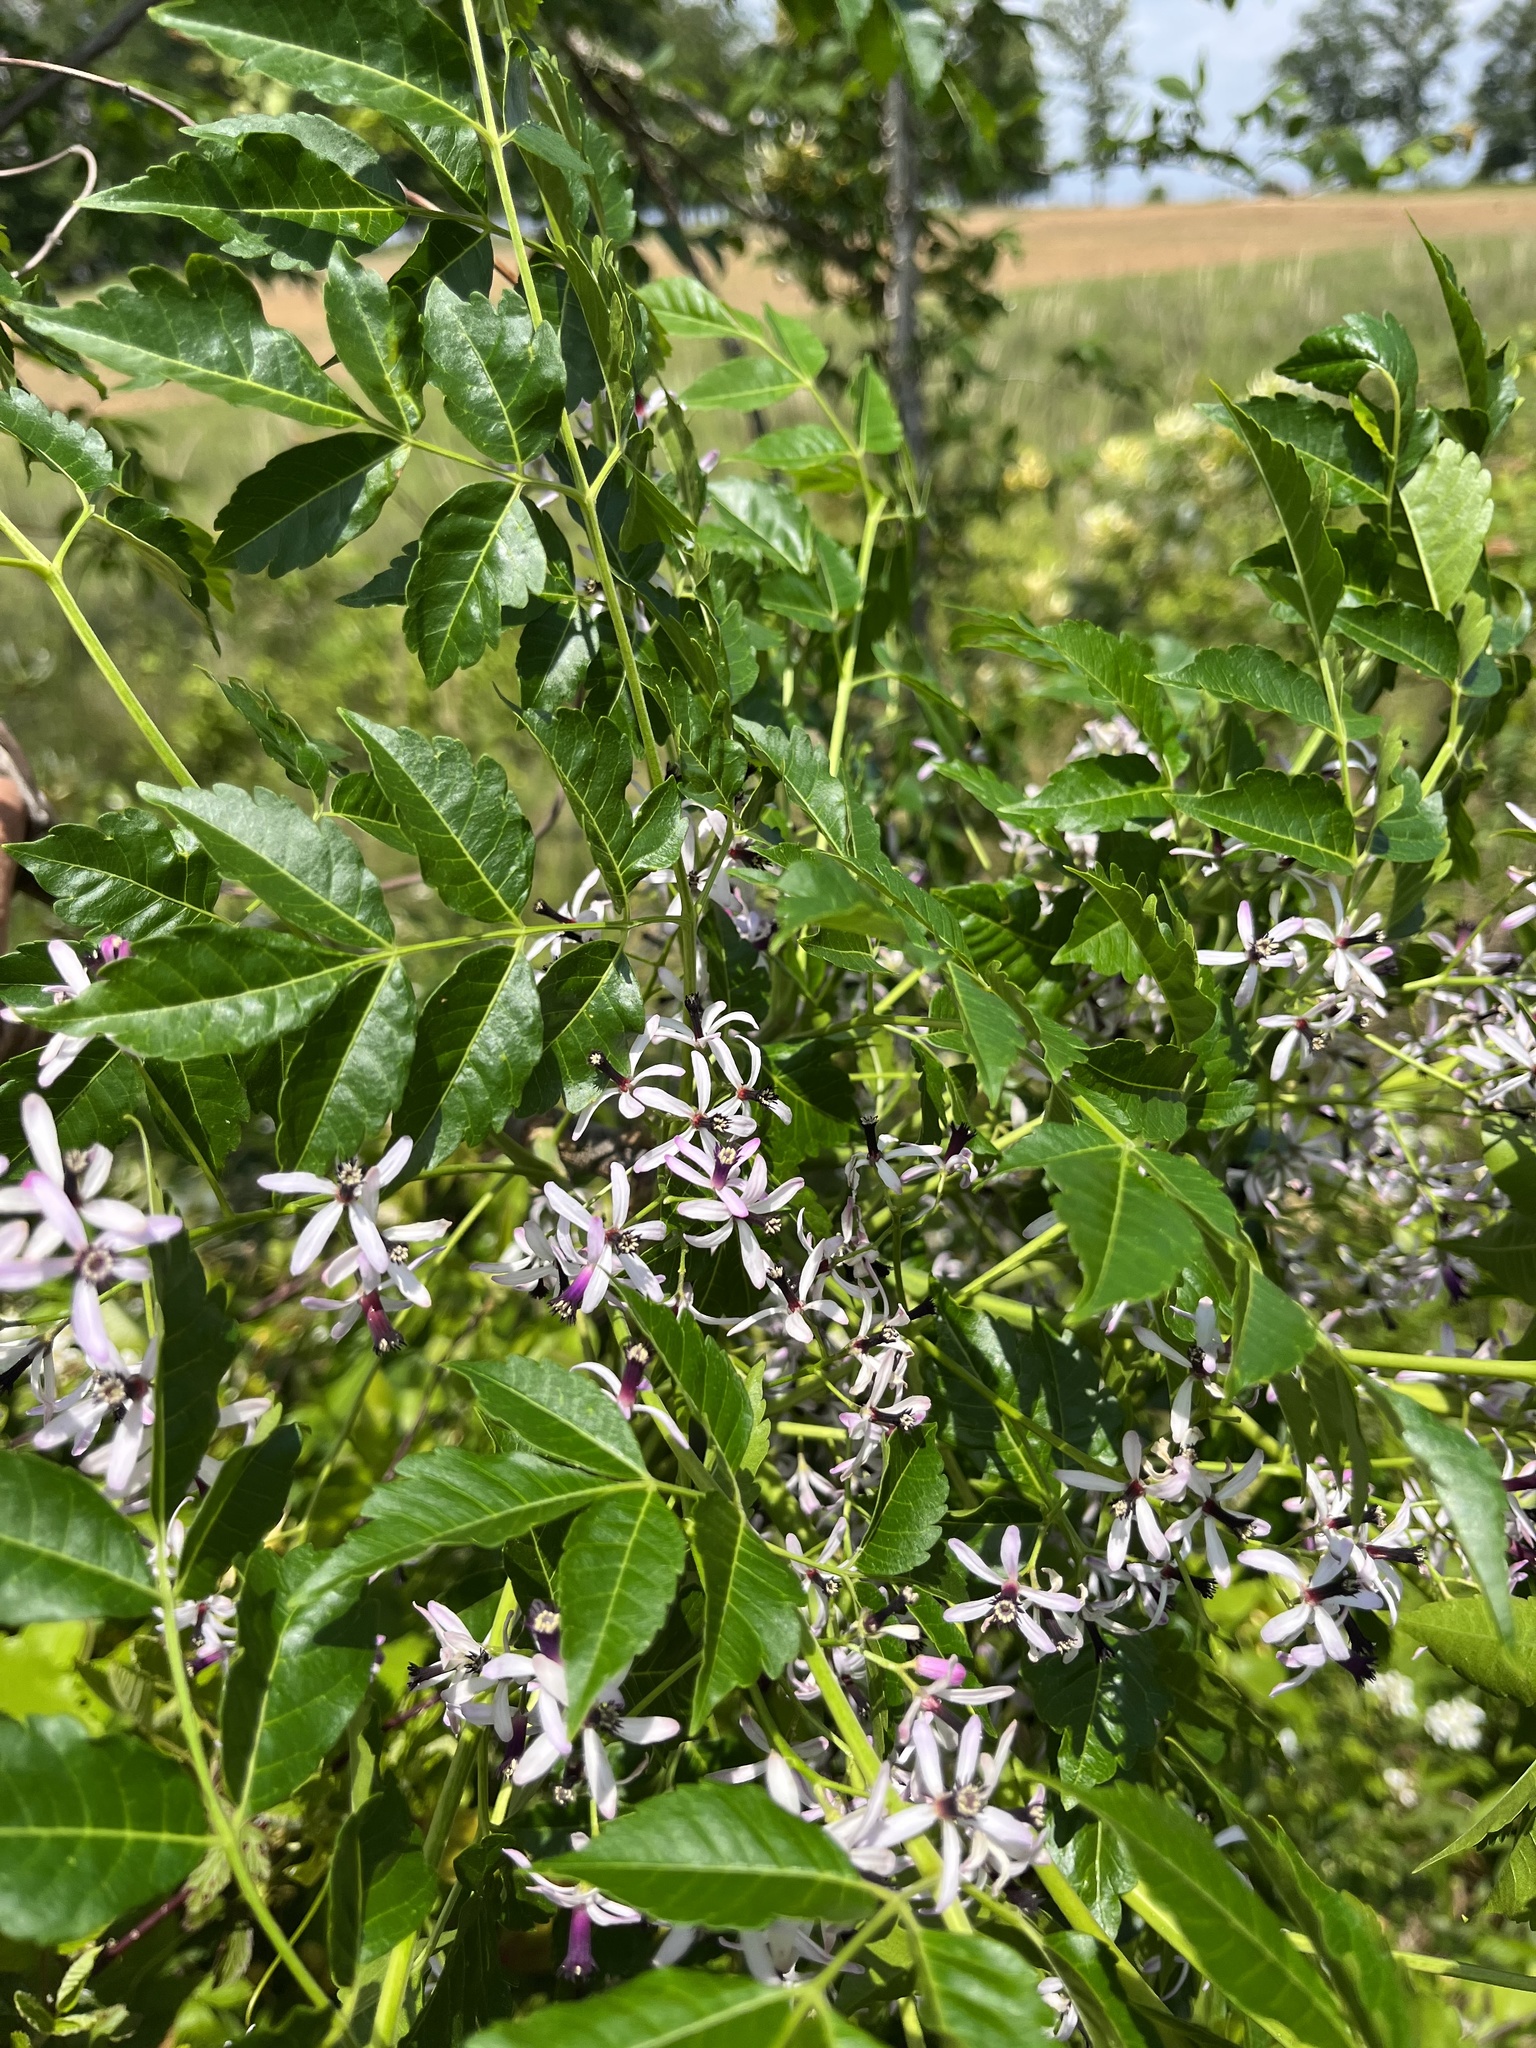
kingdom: Plantae
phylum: Tracheophyta
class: Magnoliopsida
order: Sapindales
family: Meliaceae
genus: Melia
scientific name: Melia azedarach
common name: Chinaberrytree
